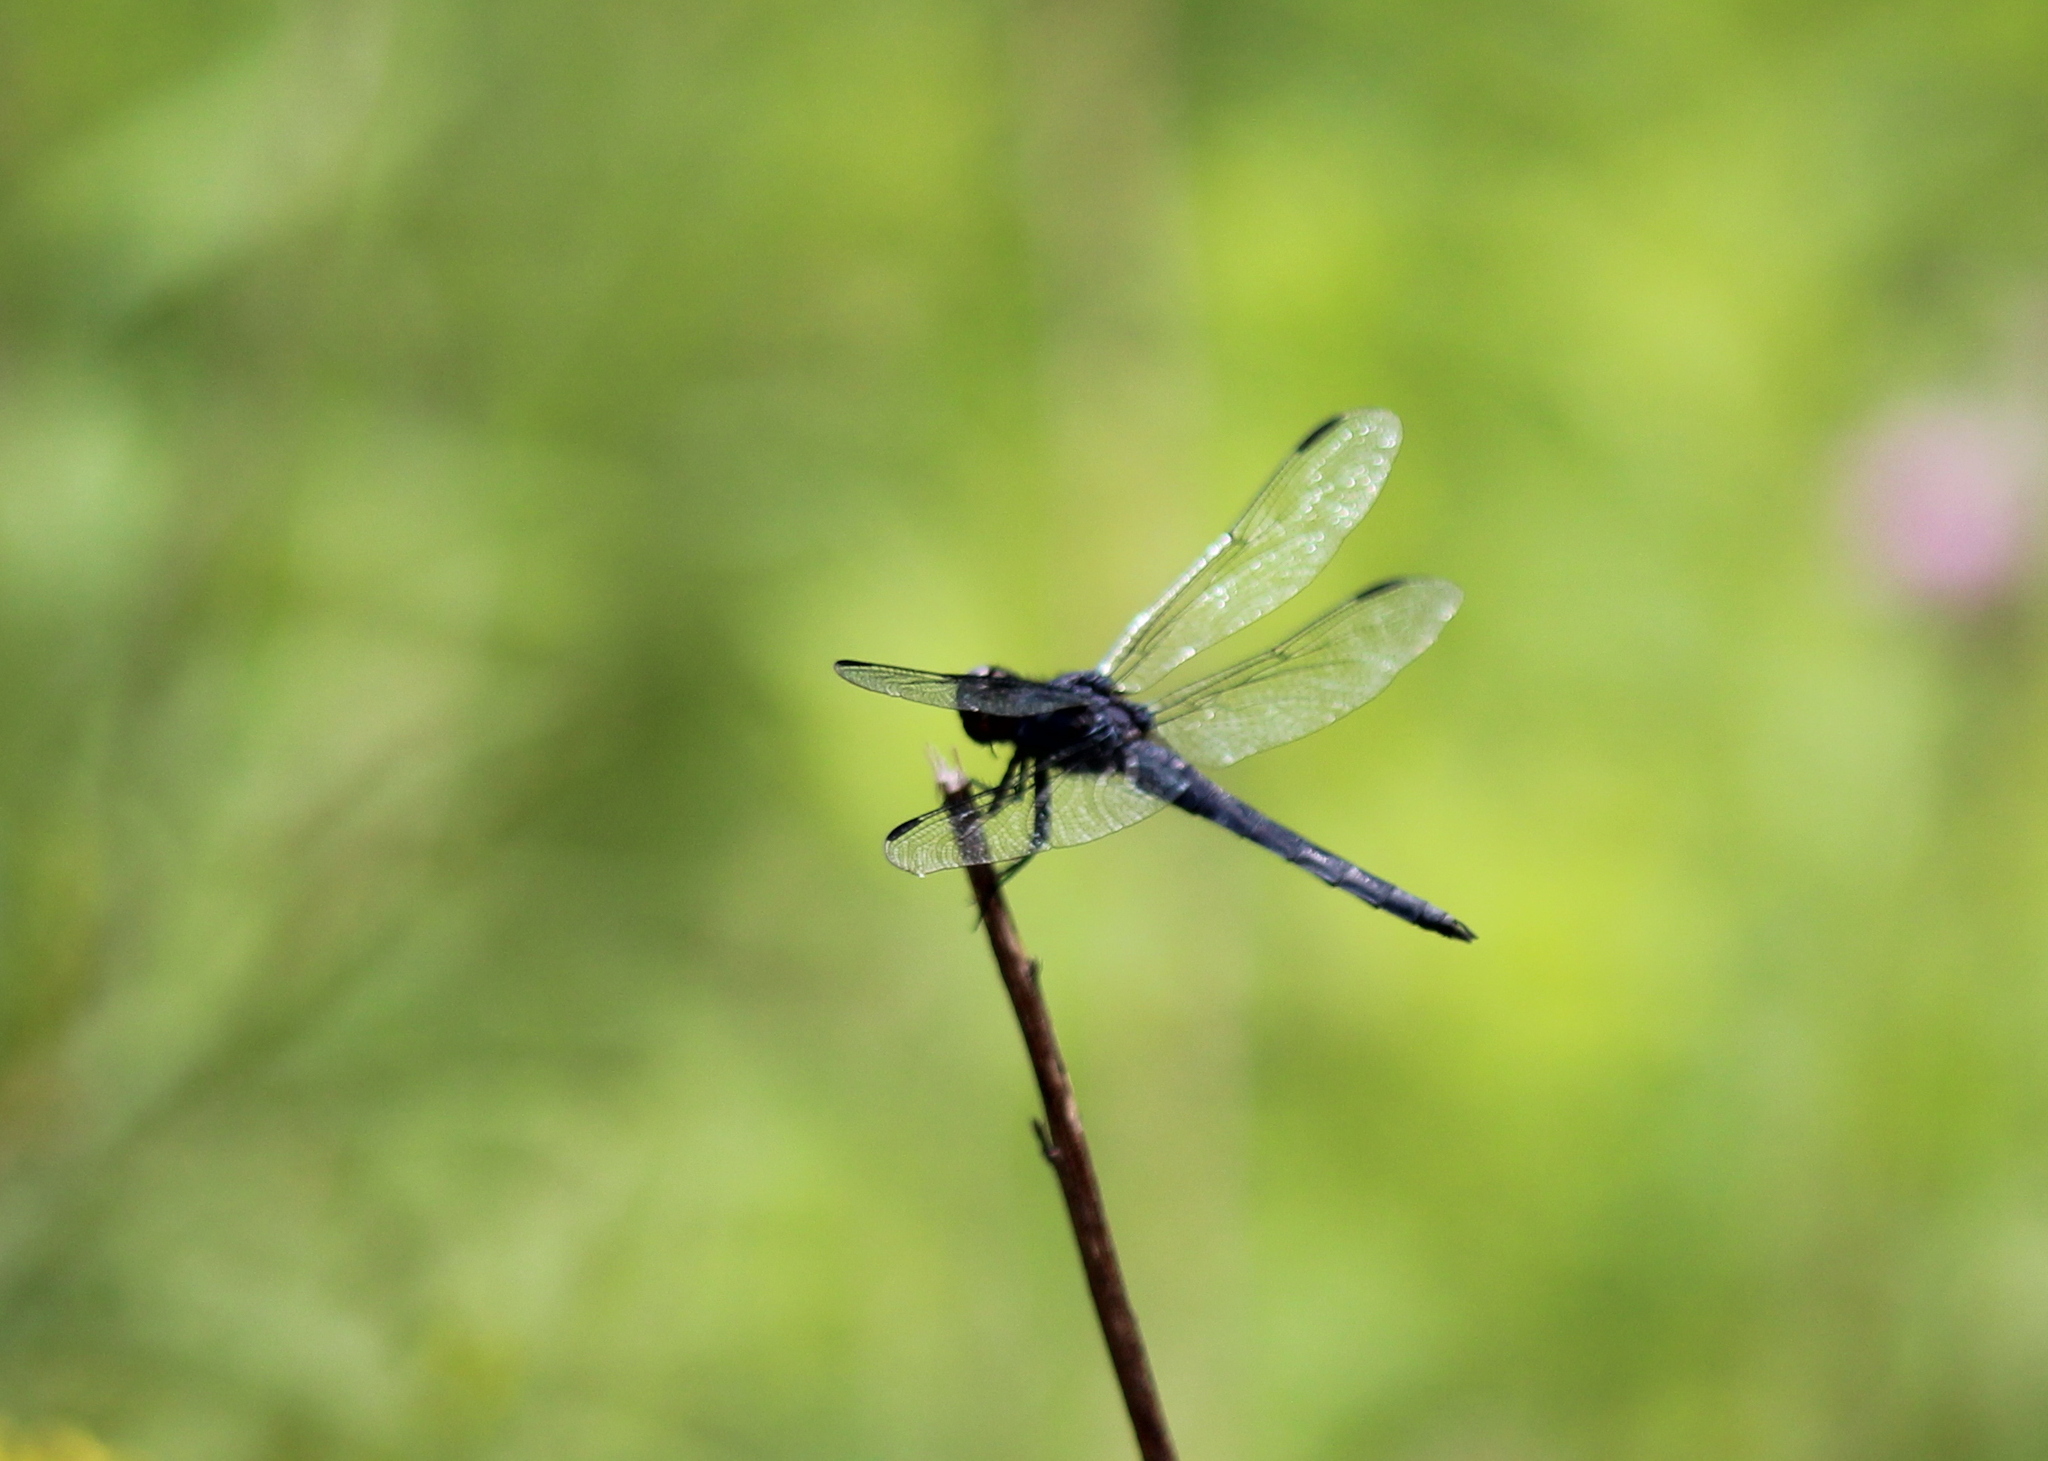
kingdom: Animalia
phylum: Arthropoda
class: Insecta
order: Odonata
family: Libellulidae
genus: Libellula
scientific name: Libellula incesta
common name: Slaty skimmer
